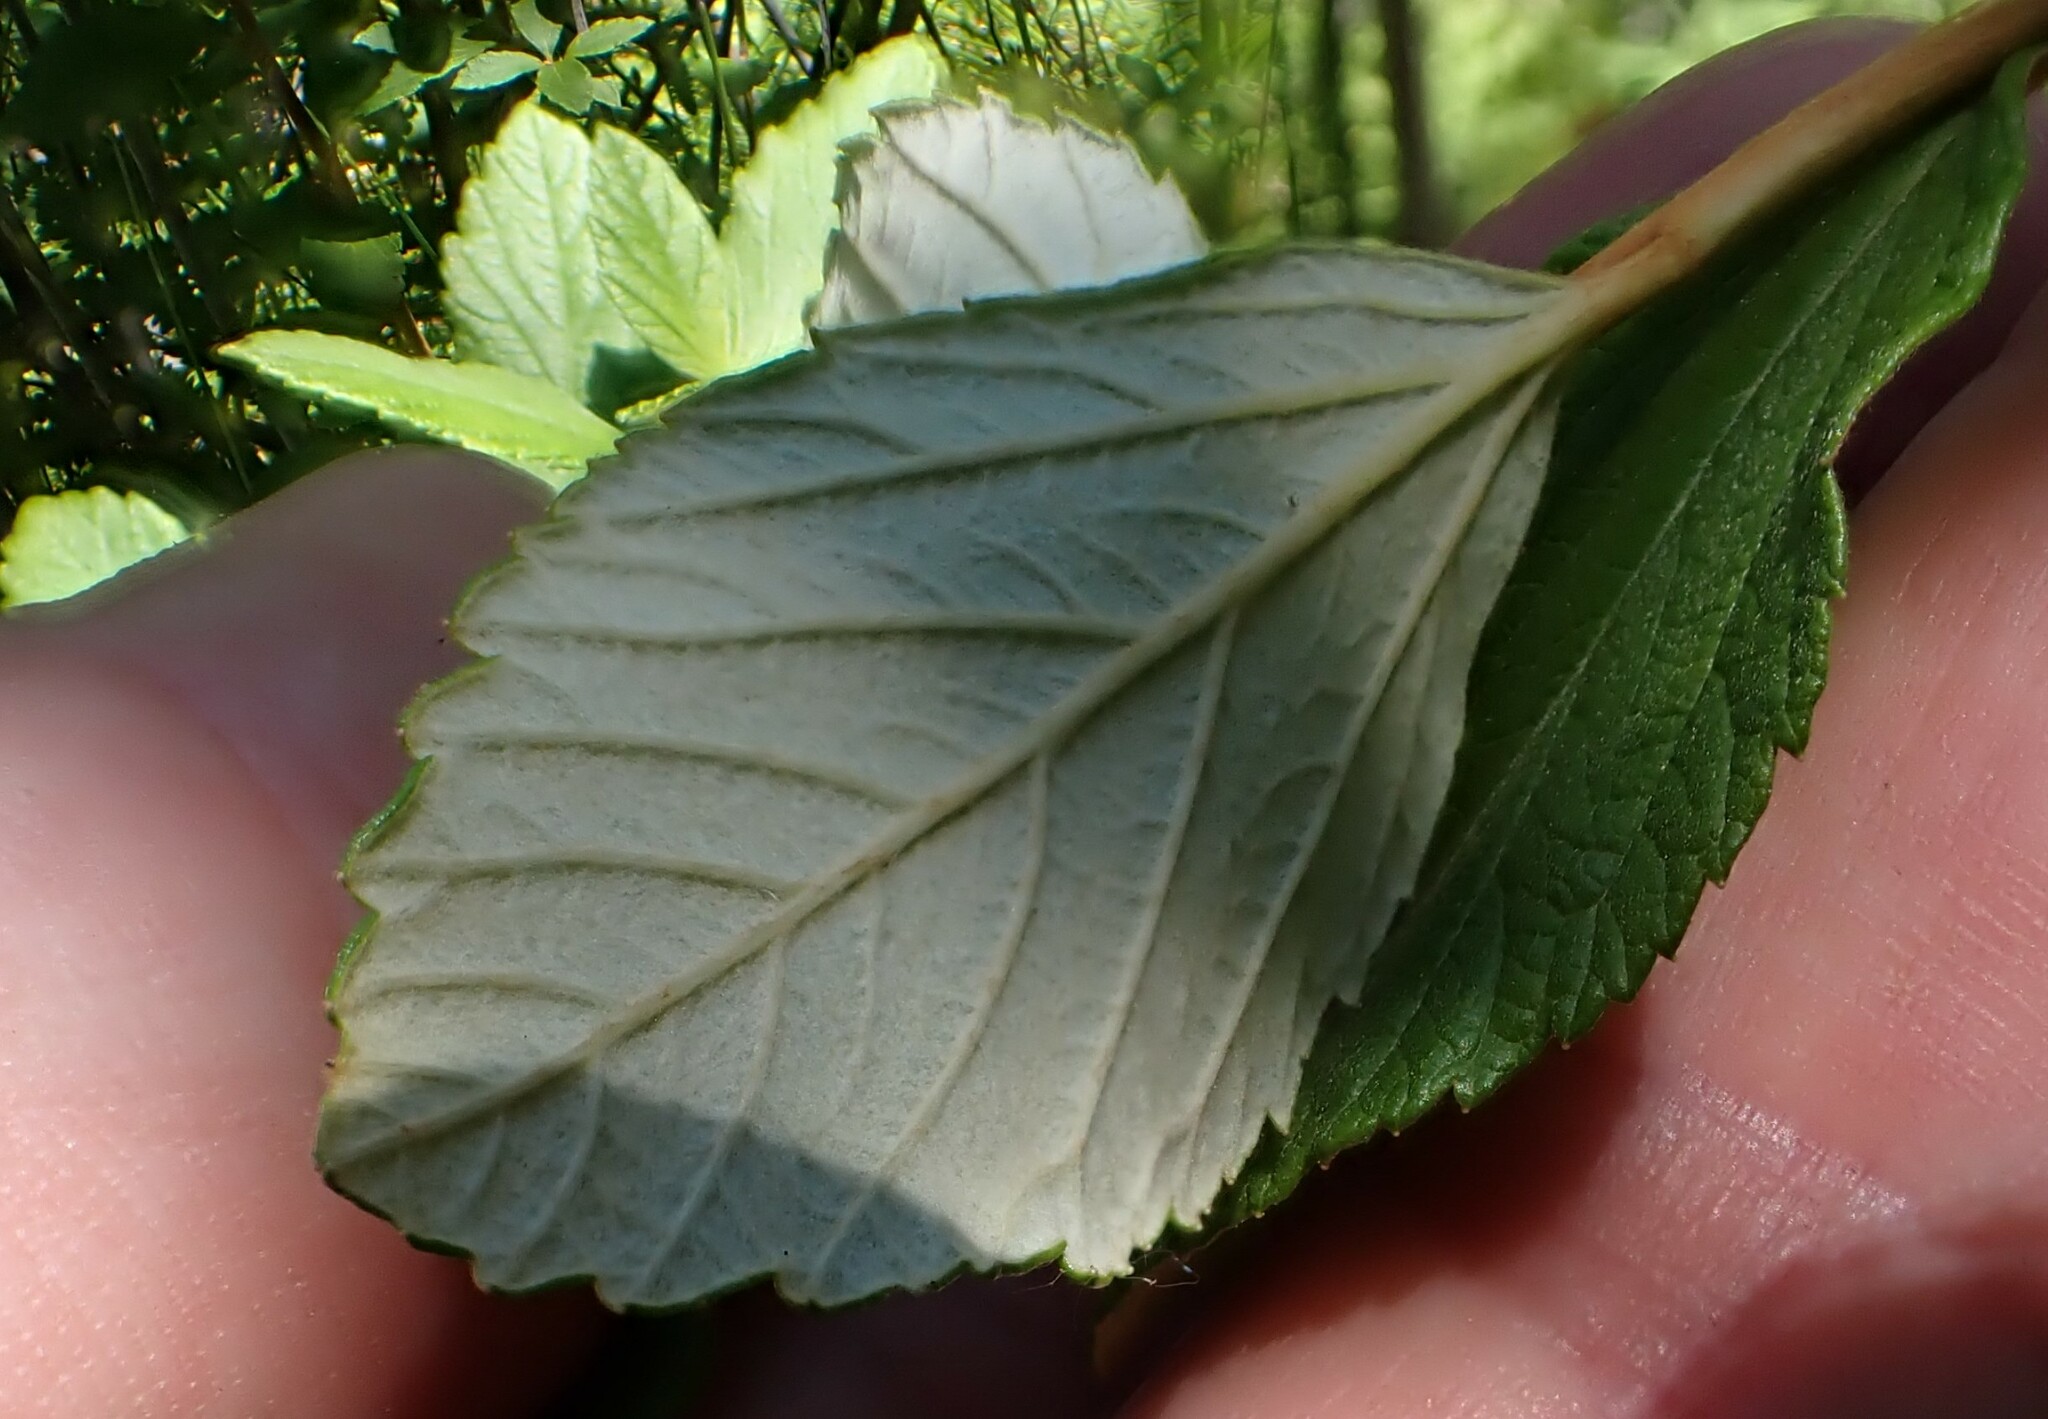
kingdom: Plantae
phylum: Tracheophyta
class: Magnoliopsida
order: Rosales
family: Rosaceae
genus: Spiraea
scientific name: Spiraea tomentosa
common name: Hardhack
